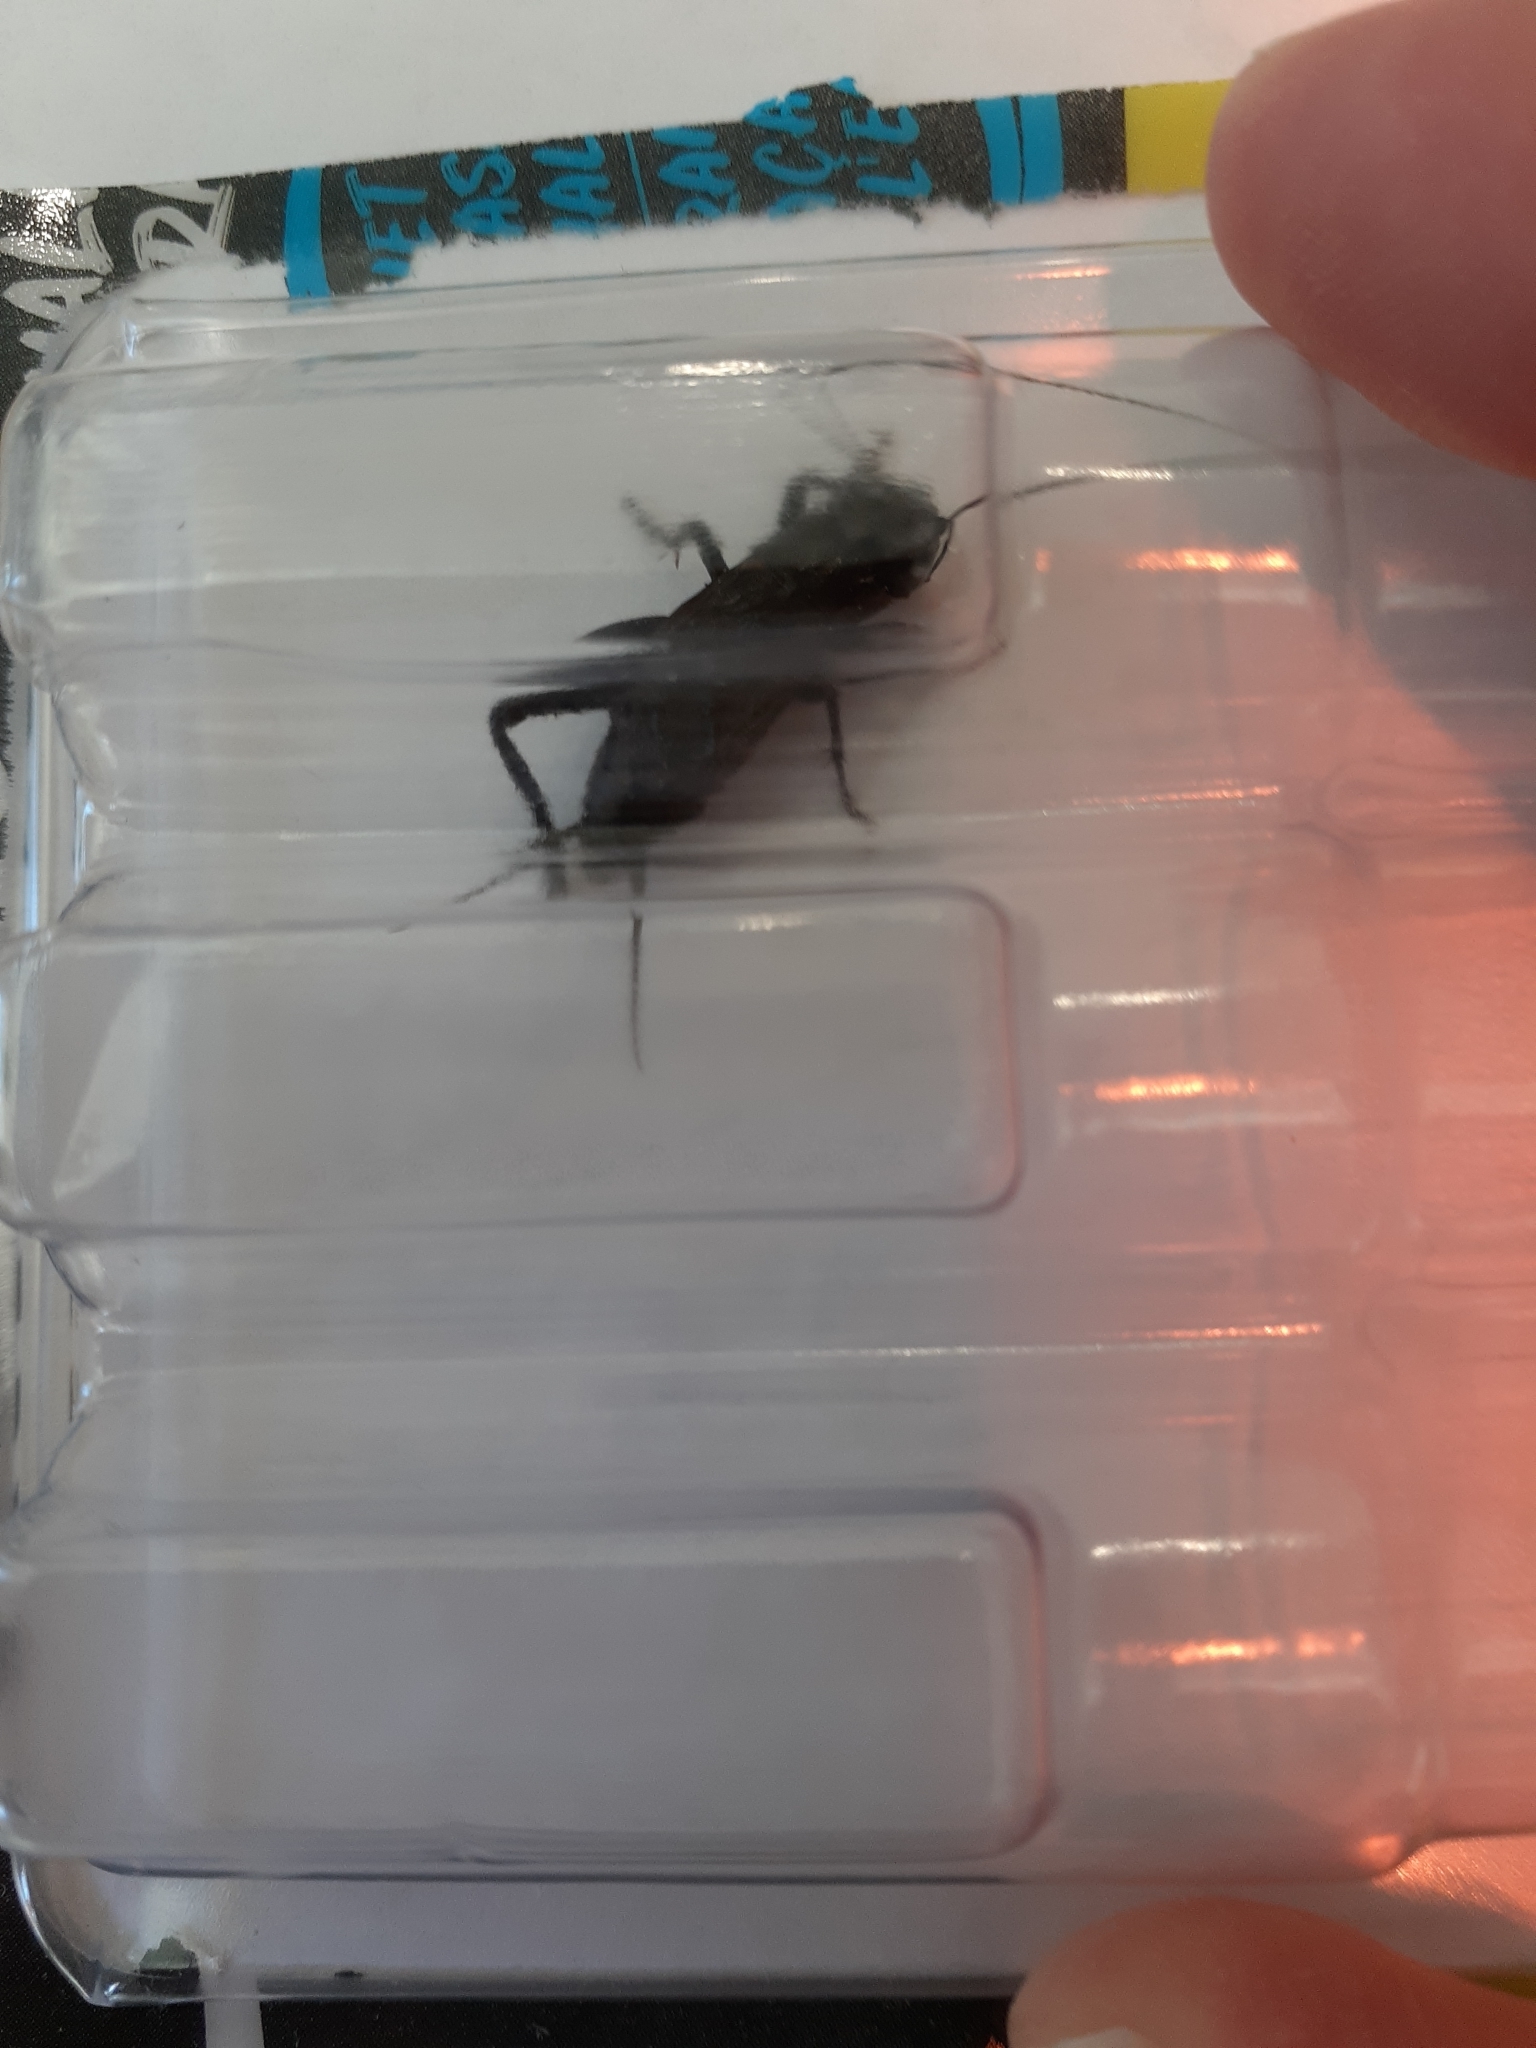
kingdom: Animalia
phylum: Arthropoda
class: Insecta
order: Orthoptera
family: Gryllidae
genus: Gryllus
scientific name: Gryllus pennsylvanicus
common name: Fall field cricket
